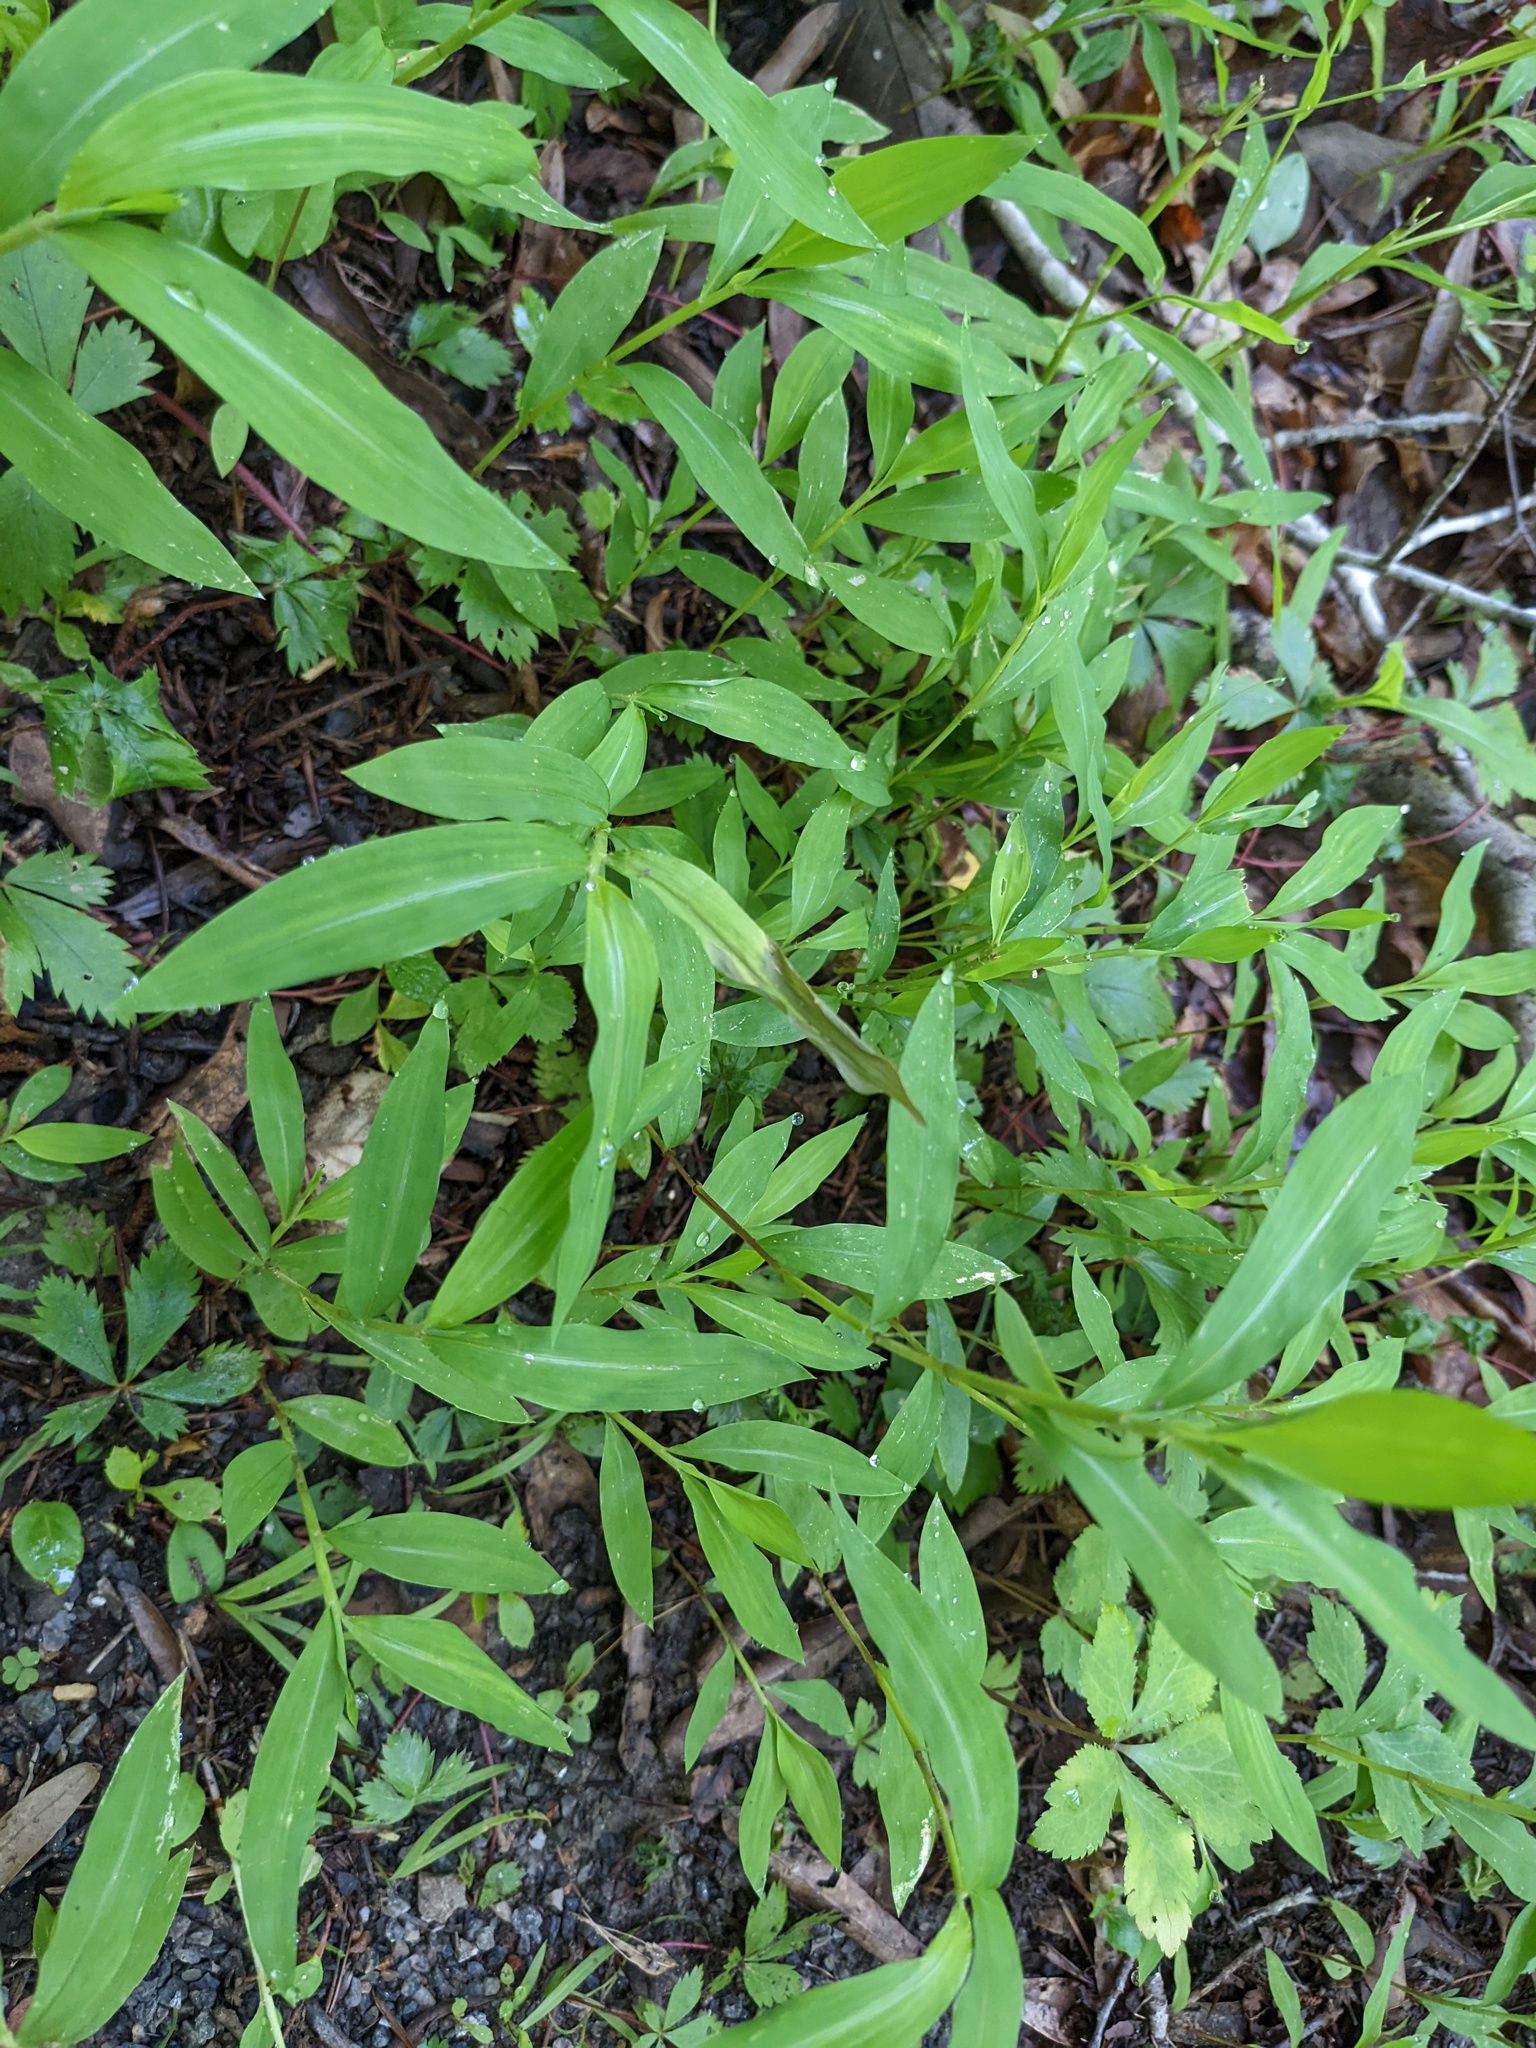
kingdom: Plantae
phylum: Tracheophyta
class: Liliopsida
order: Poales
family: Poaceae
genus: Microstegium
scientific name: Microstegium vimineum
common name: Japanese stiltgrass
